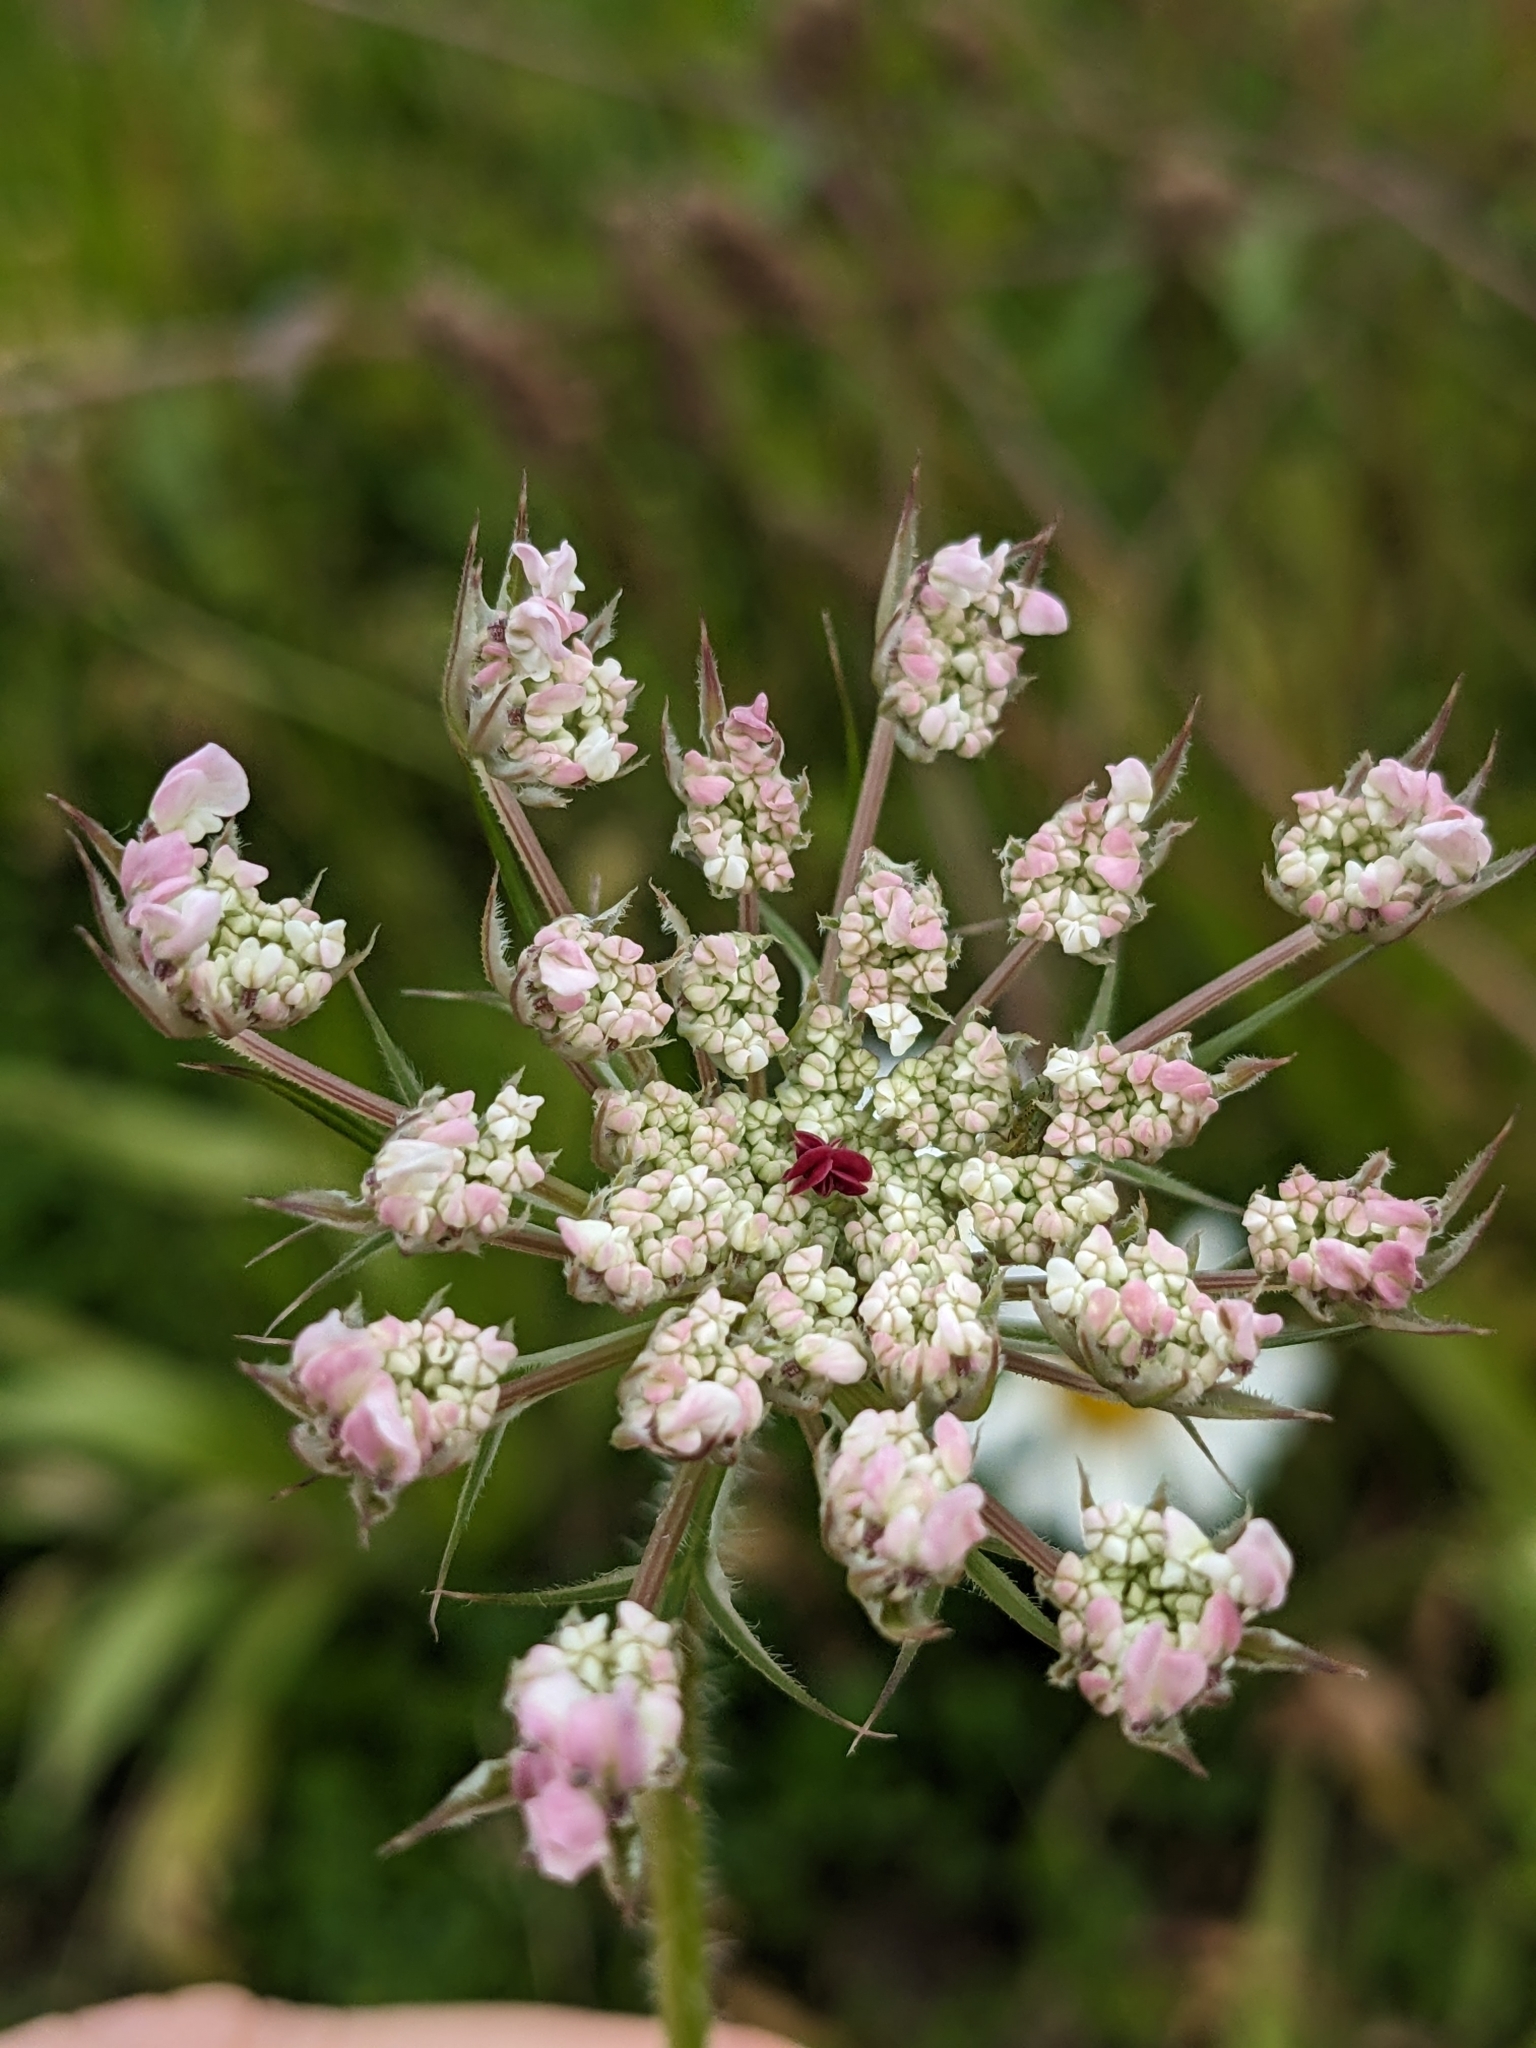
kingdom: Plantae
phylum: Tracheophyta
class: Magnoliopsida
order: Apiales
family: Apiaceae
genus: Daucus
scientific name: Daucus carota
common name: Wild carrot
